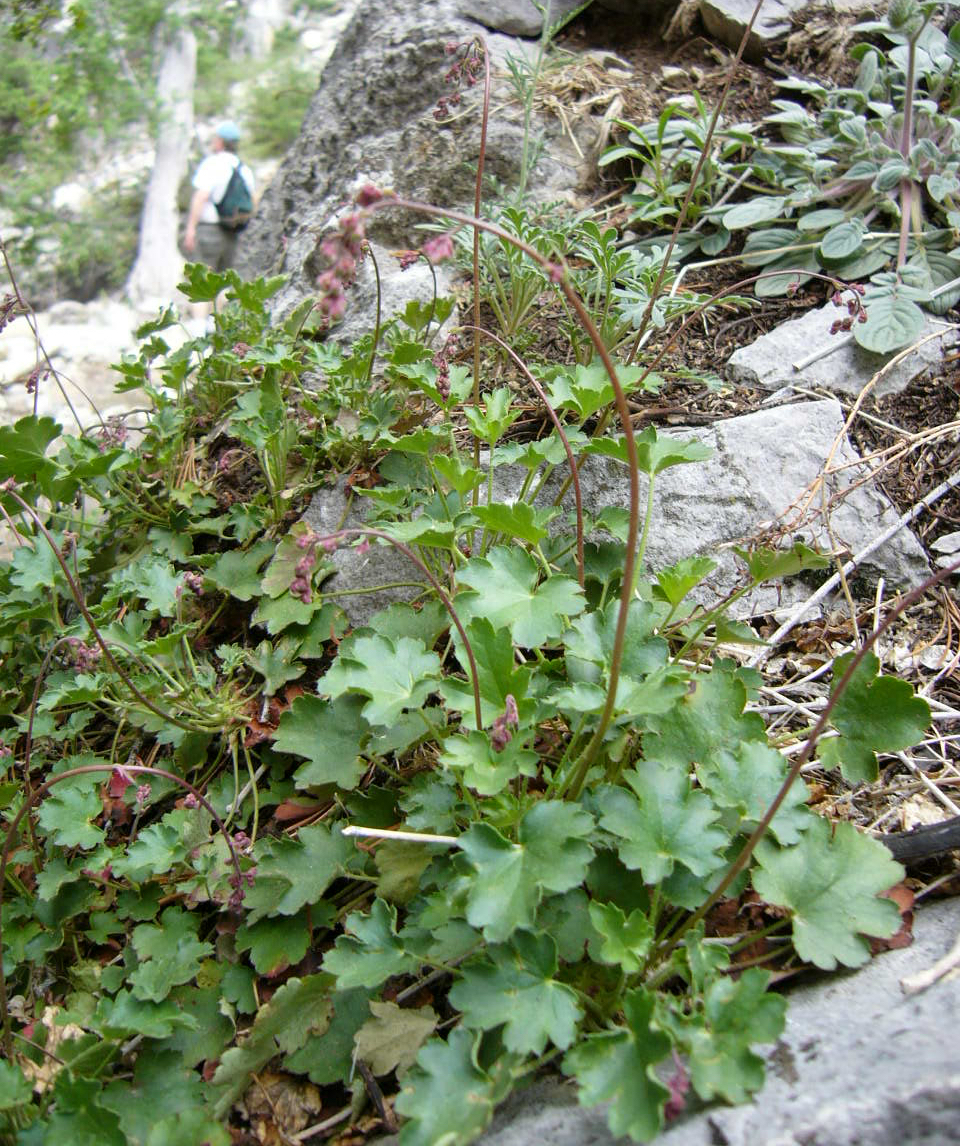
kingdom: Plantae
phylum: Tracheophyta
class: Magnoliopsida
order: Saxifragales
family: Saxifragaceae
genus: Heuchera
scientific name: Heuchera rubescens
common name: Jack-o'the-rocks
